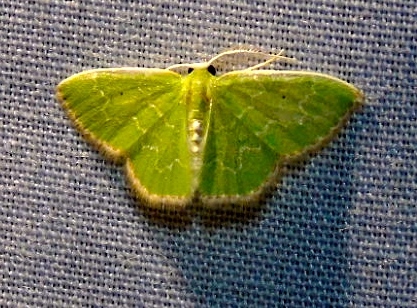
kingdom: Animalia
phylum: Arthropoda
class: Insecta
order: Lepidoptera
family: Geometridae
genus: Synchlora
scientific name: Synchlora
